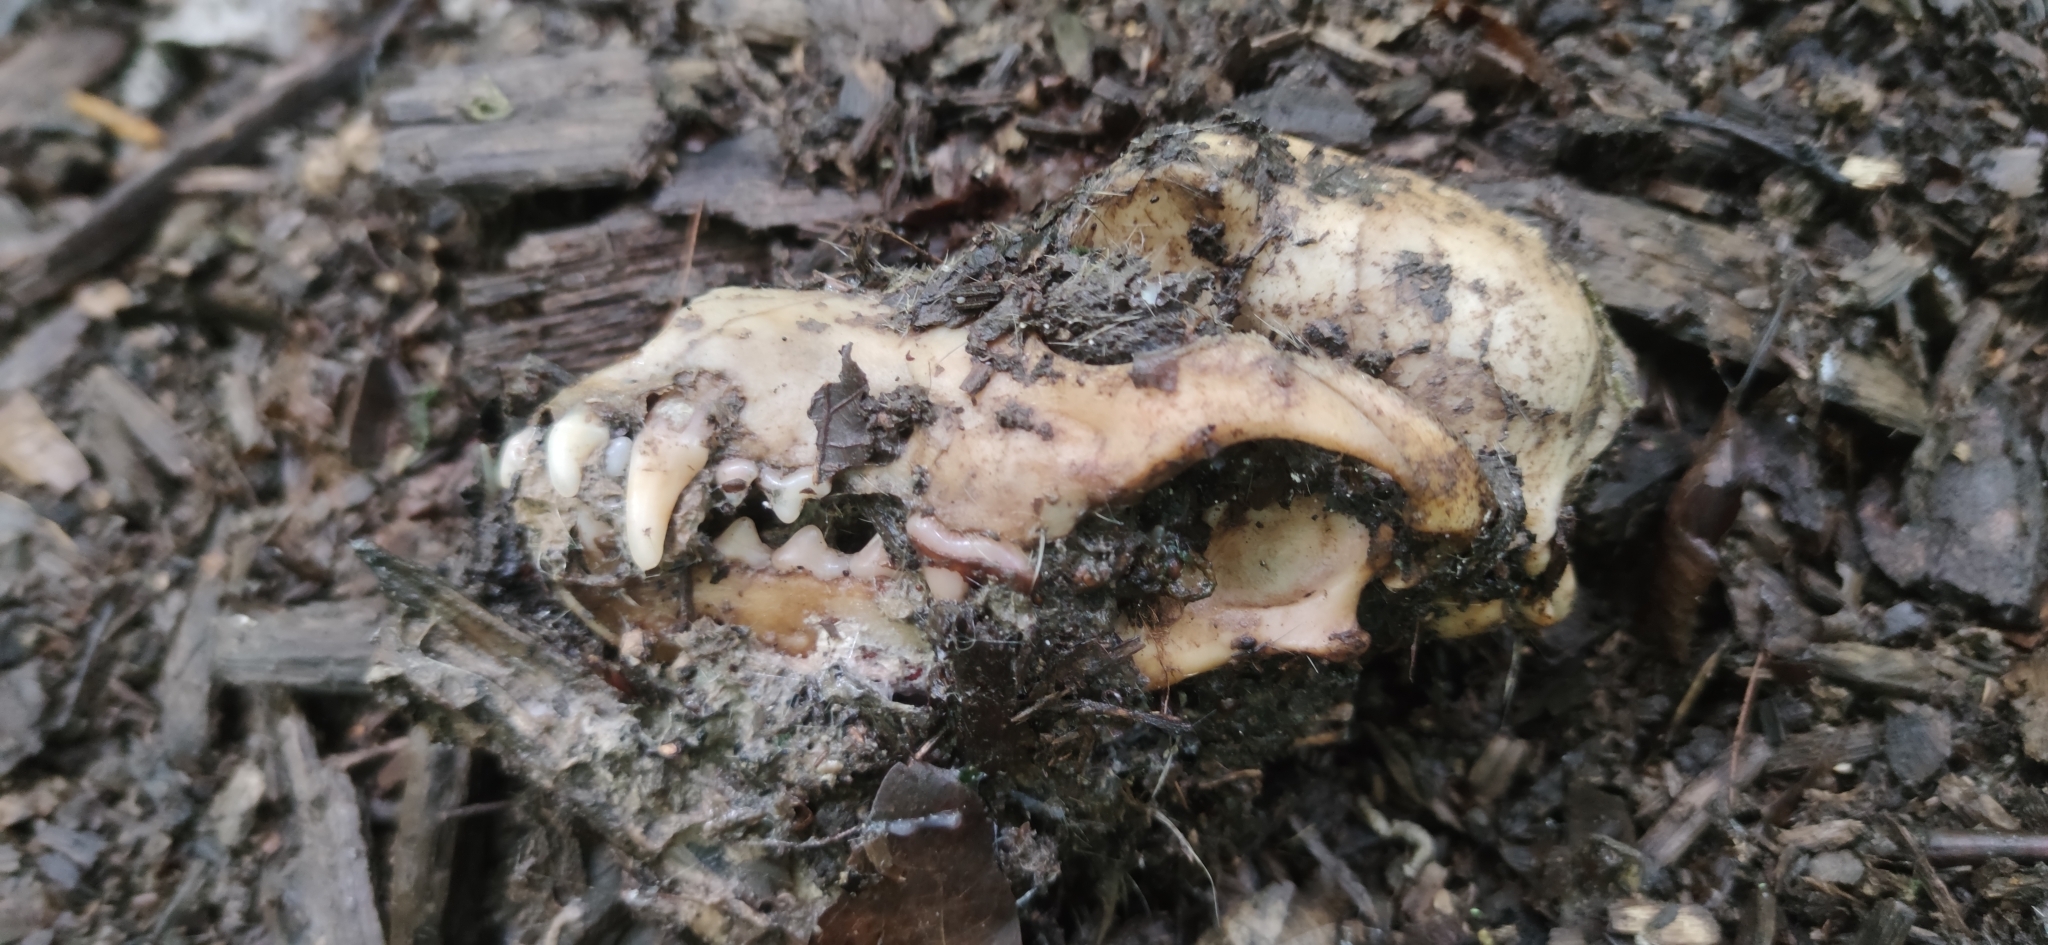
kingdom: Animalia
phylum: Chordata
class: Mammalia
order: Carnivora
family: Canidae
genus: Canis
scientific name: Canis lupus
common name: Gray wolf
